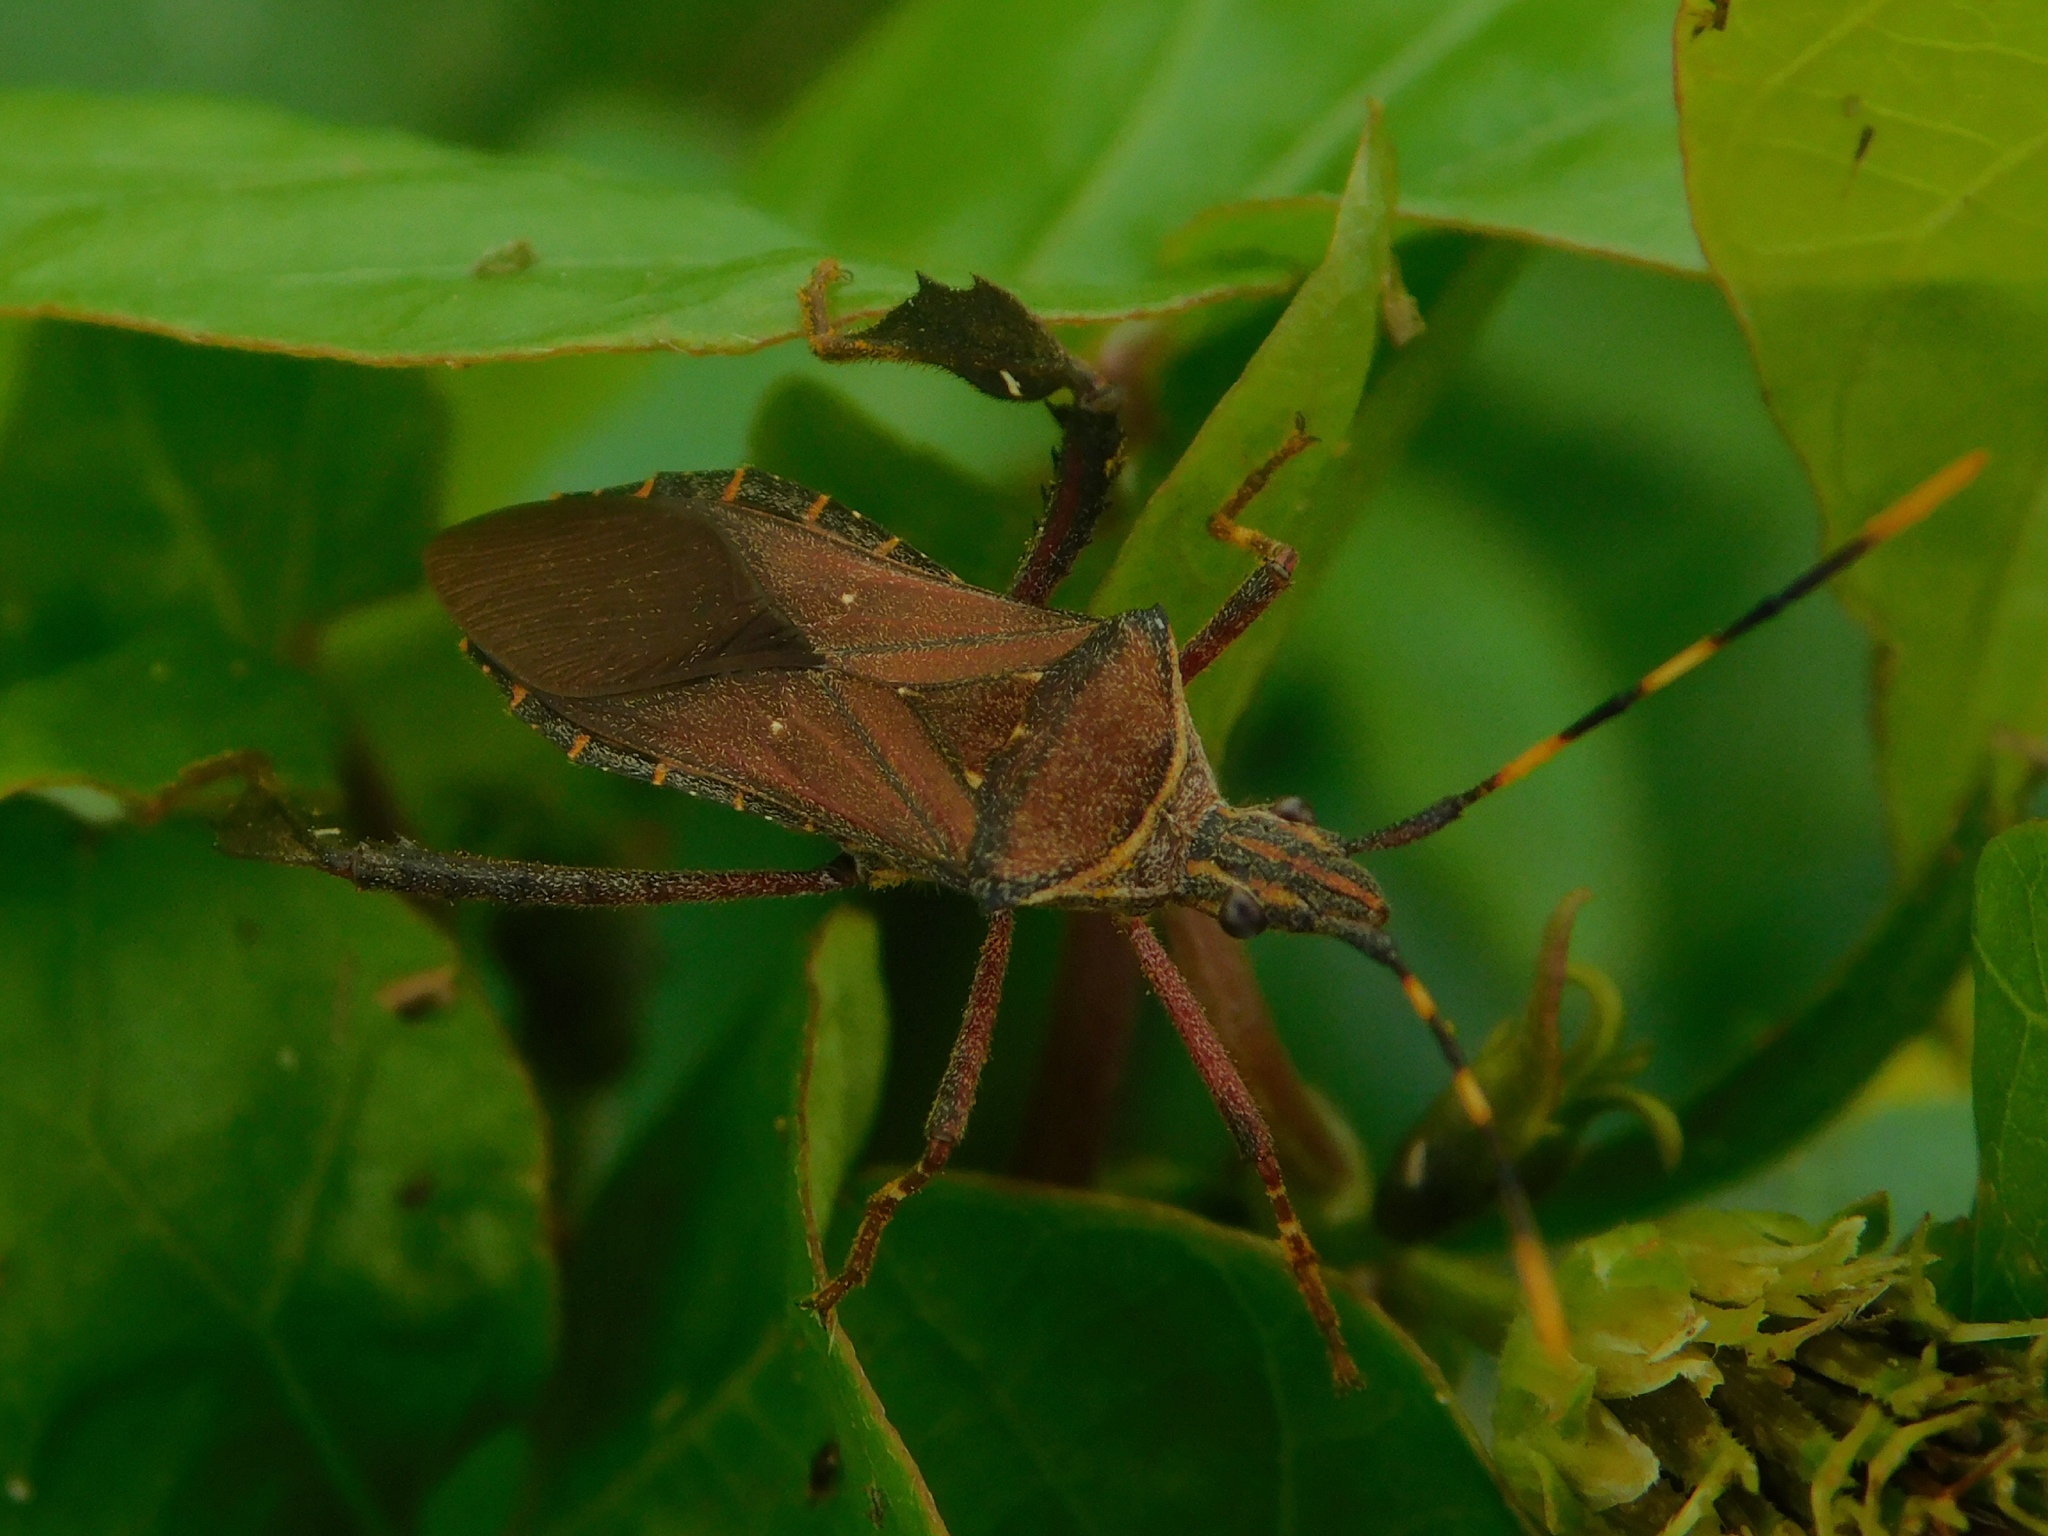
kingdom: Animalia
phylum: Arthropoda
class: Insecta
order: Hemiptera
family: Coreidae
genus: Leptoglossus
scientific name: Leptoglossus gonagra
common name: Citron bug
